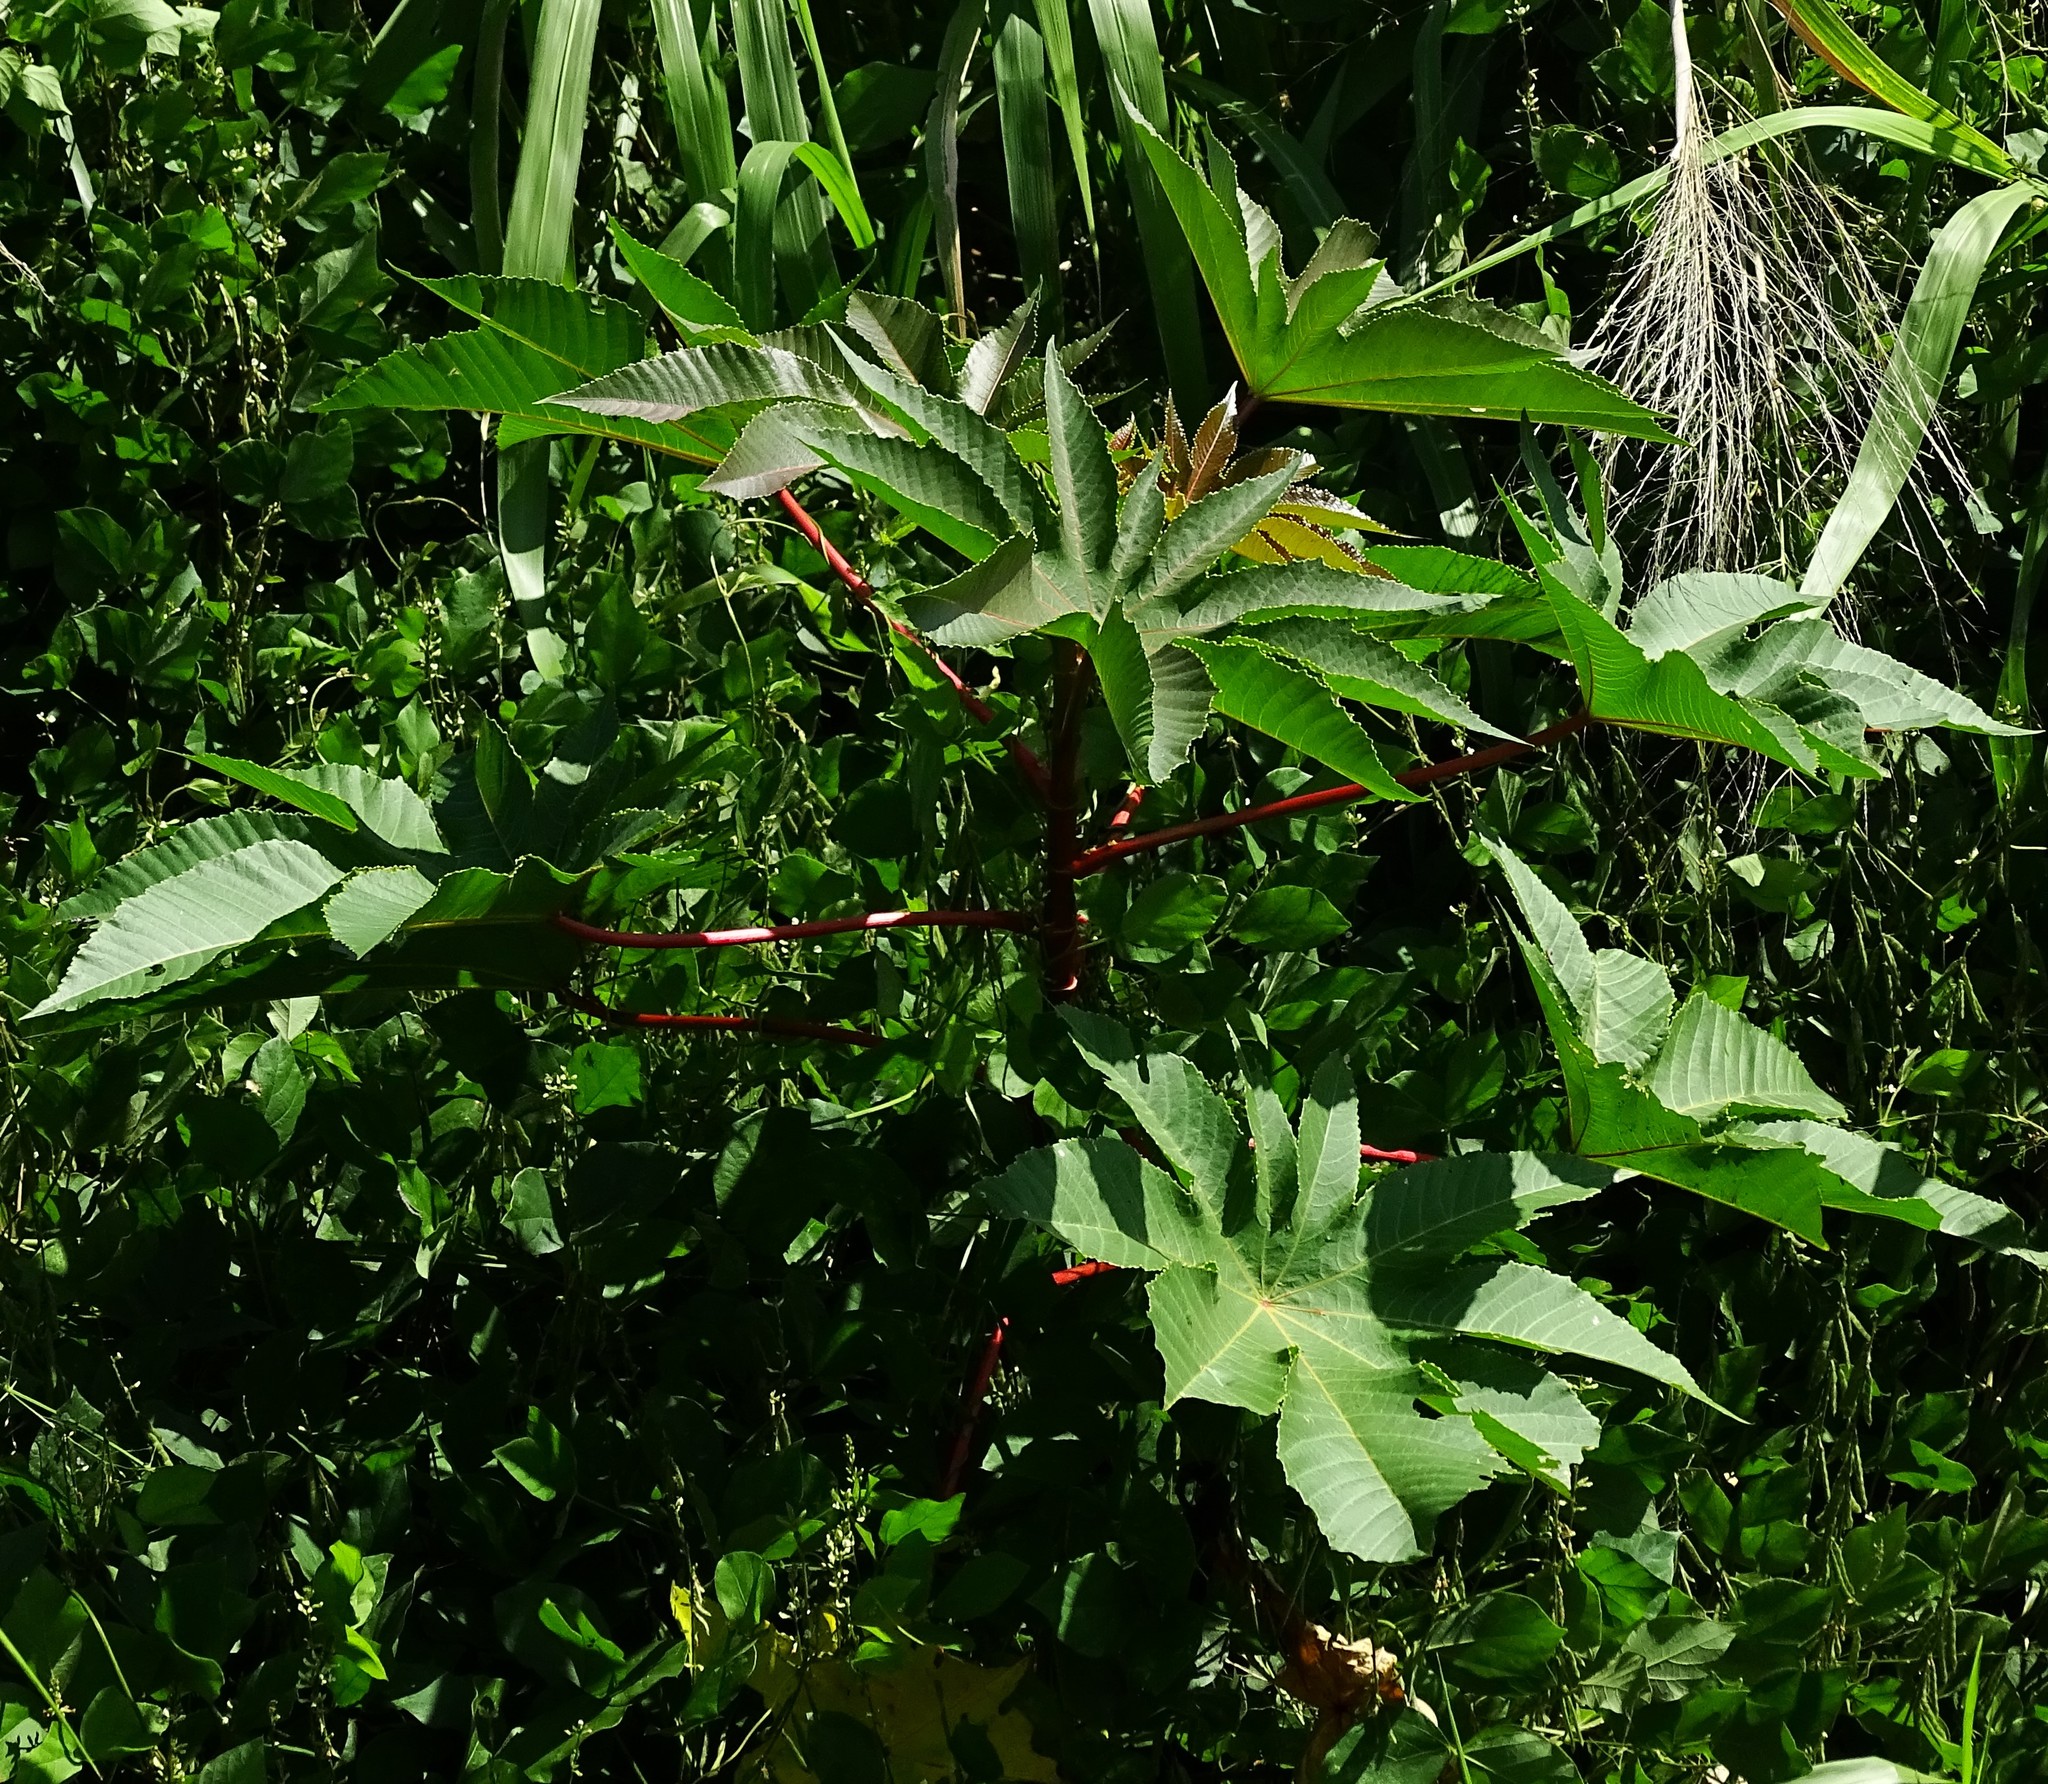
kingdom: Plantae
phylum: Tracheophyta
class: Magnoliopsida
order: Malpighiales
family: Euphorbiaceae
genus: Ricinus
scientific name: Ricinus communis
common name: Castor-oil-plant
